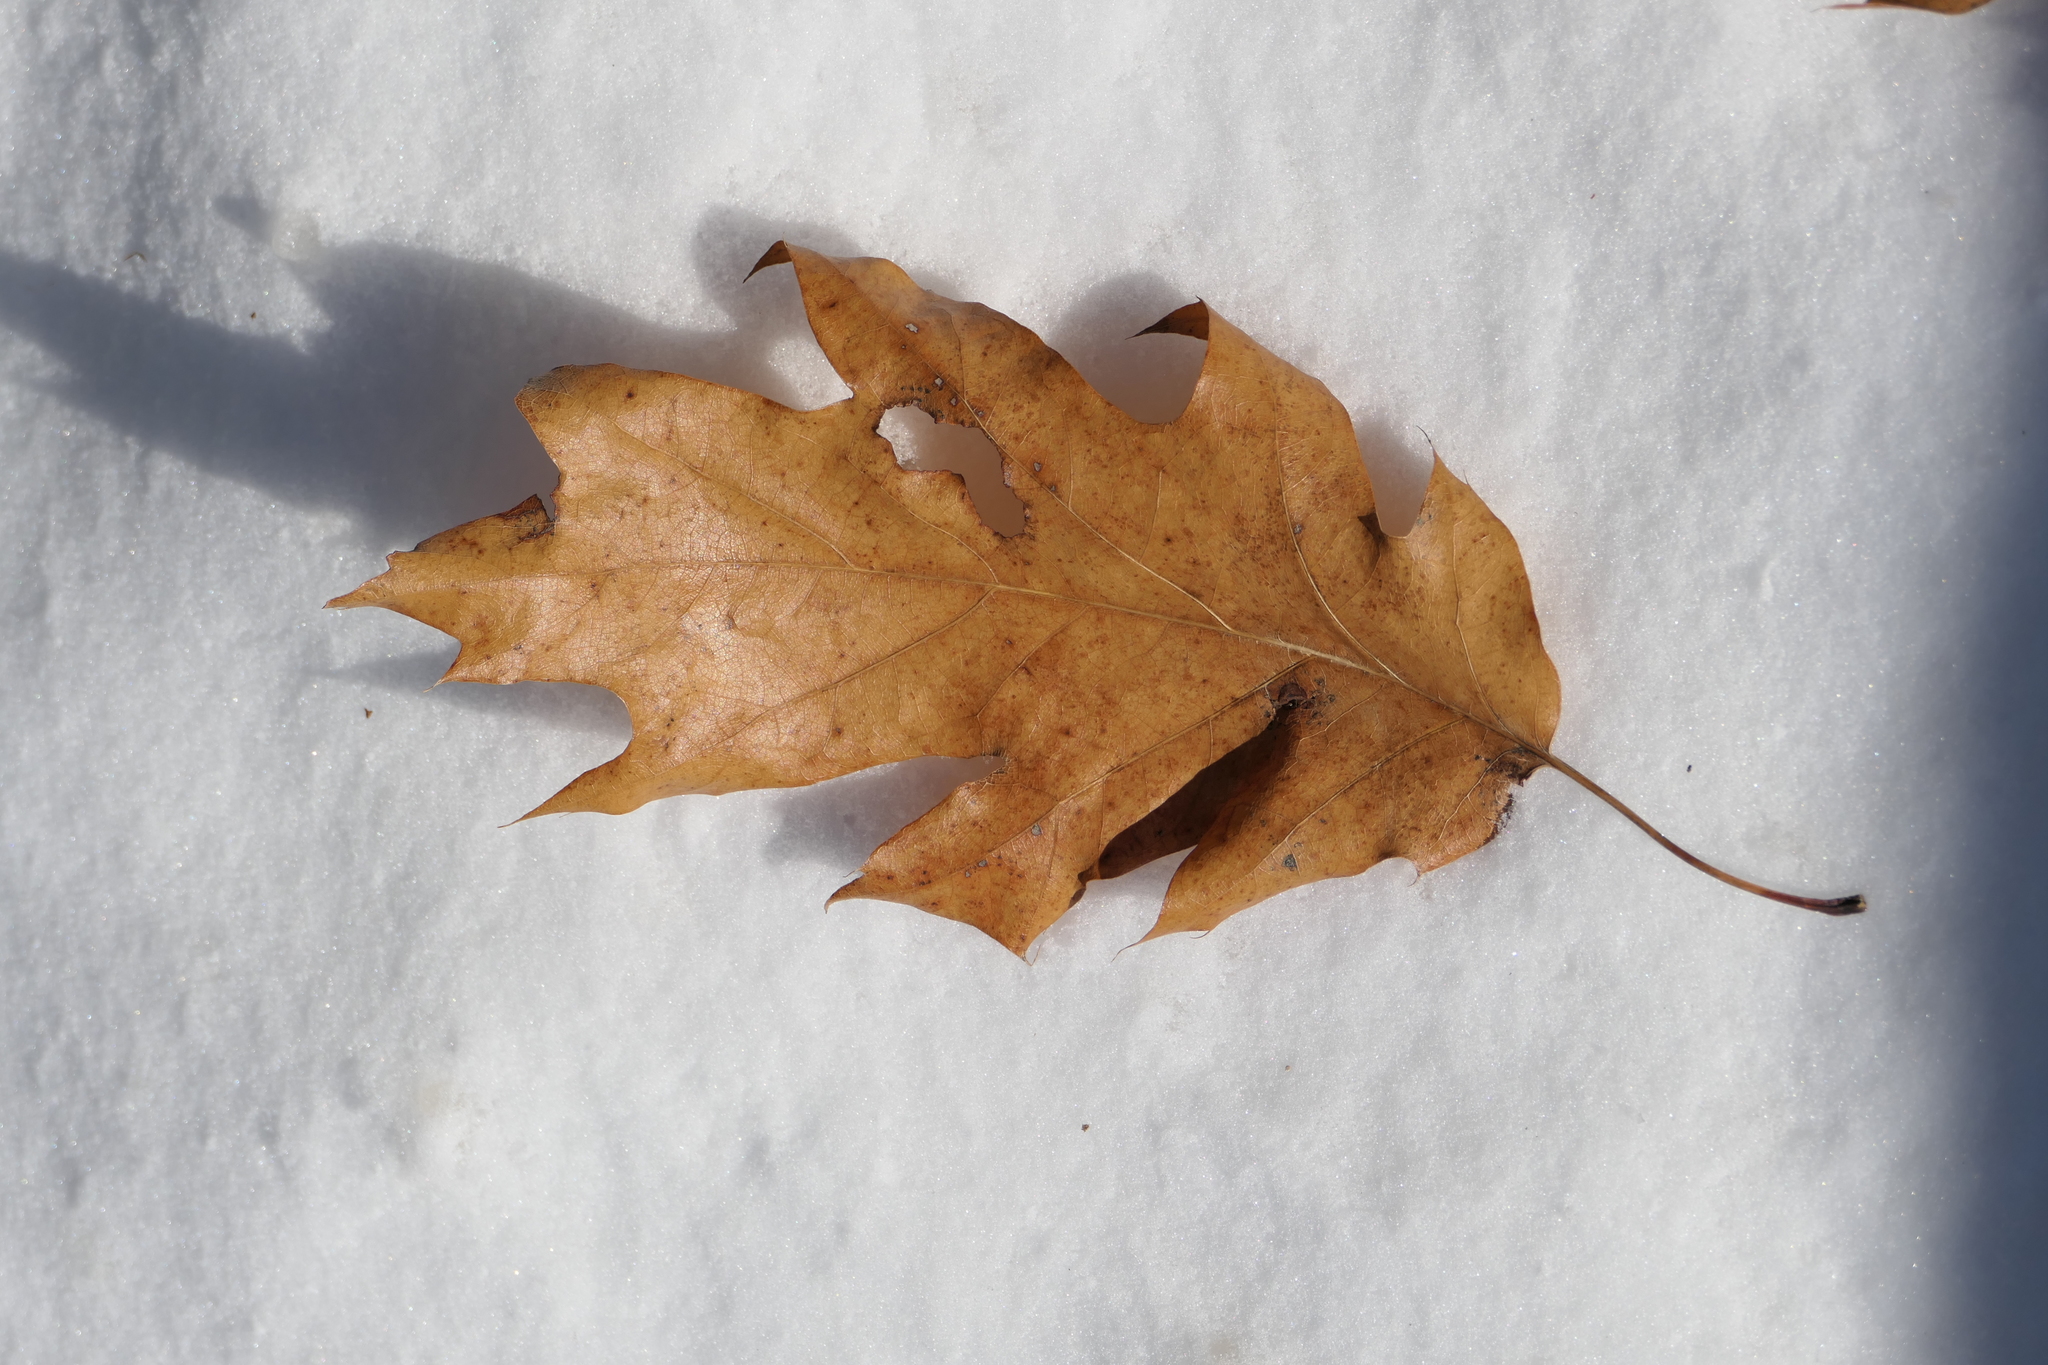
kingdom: Plantae
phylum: Tracheophyta
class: Magnoliopsida
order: Fagales
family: Fagaceae
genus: Quercus
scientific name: Quercus rubra
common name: Red oak
